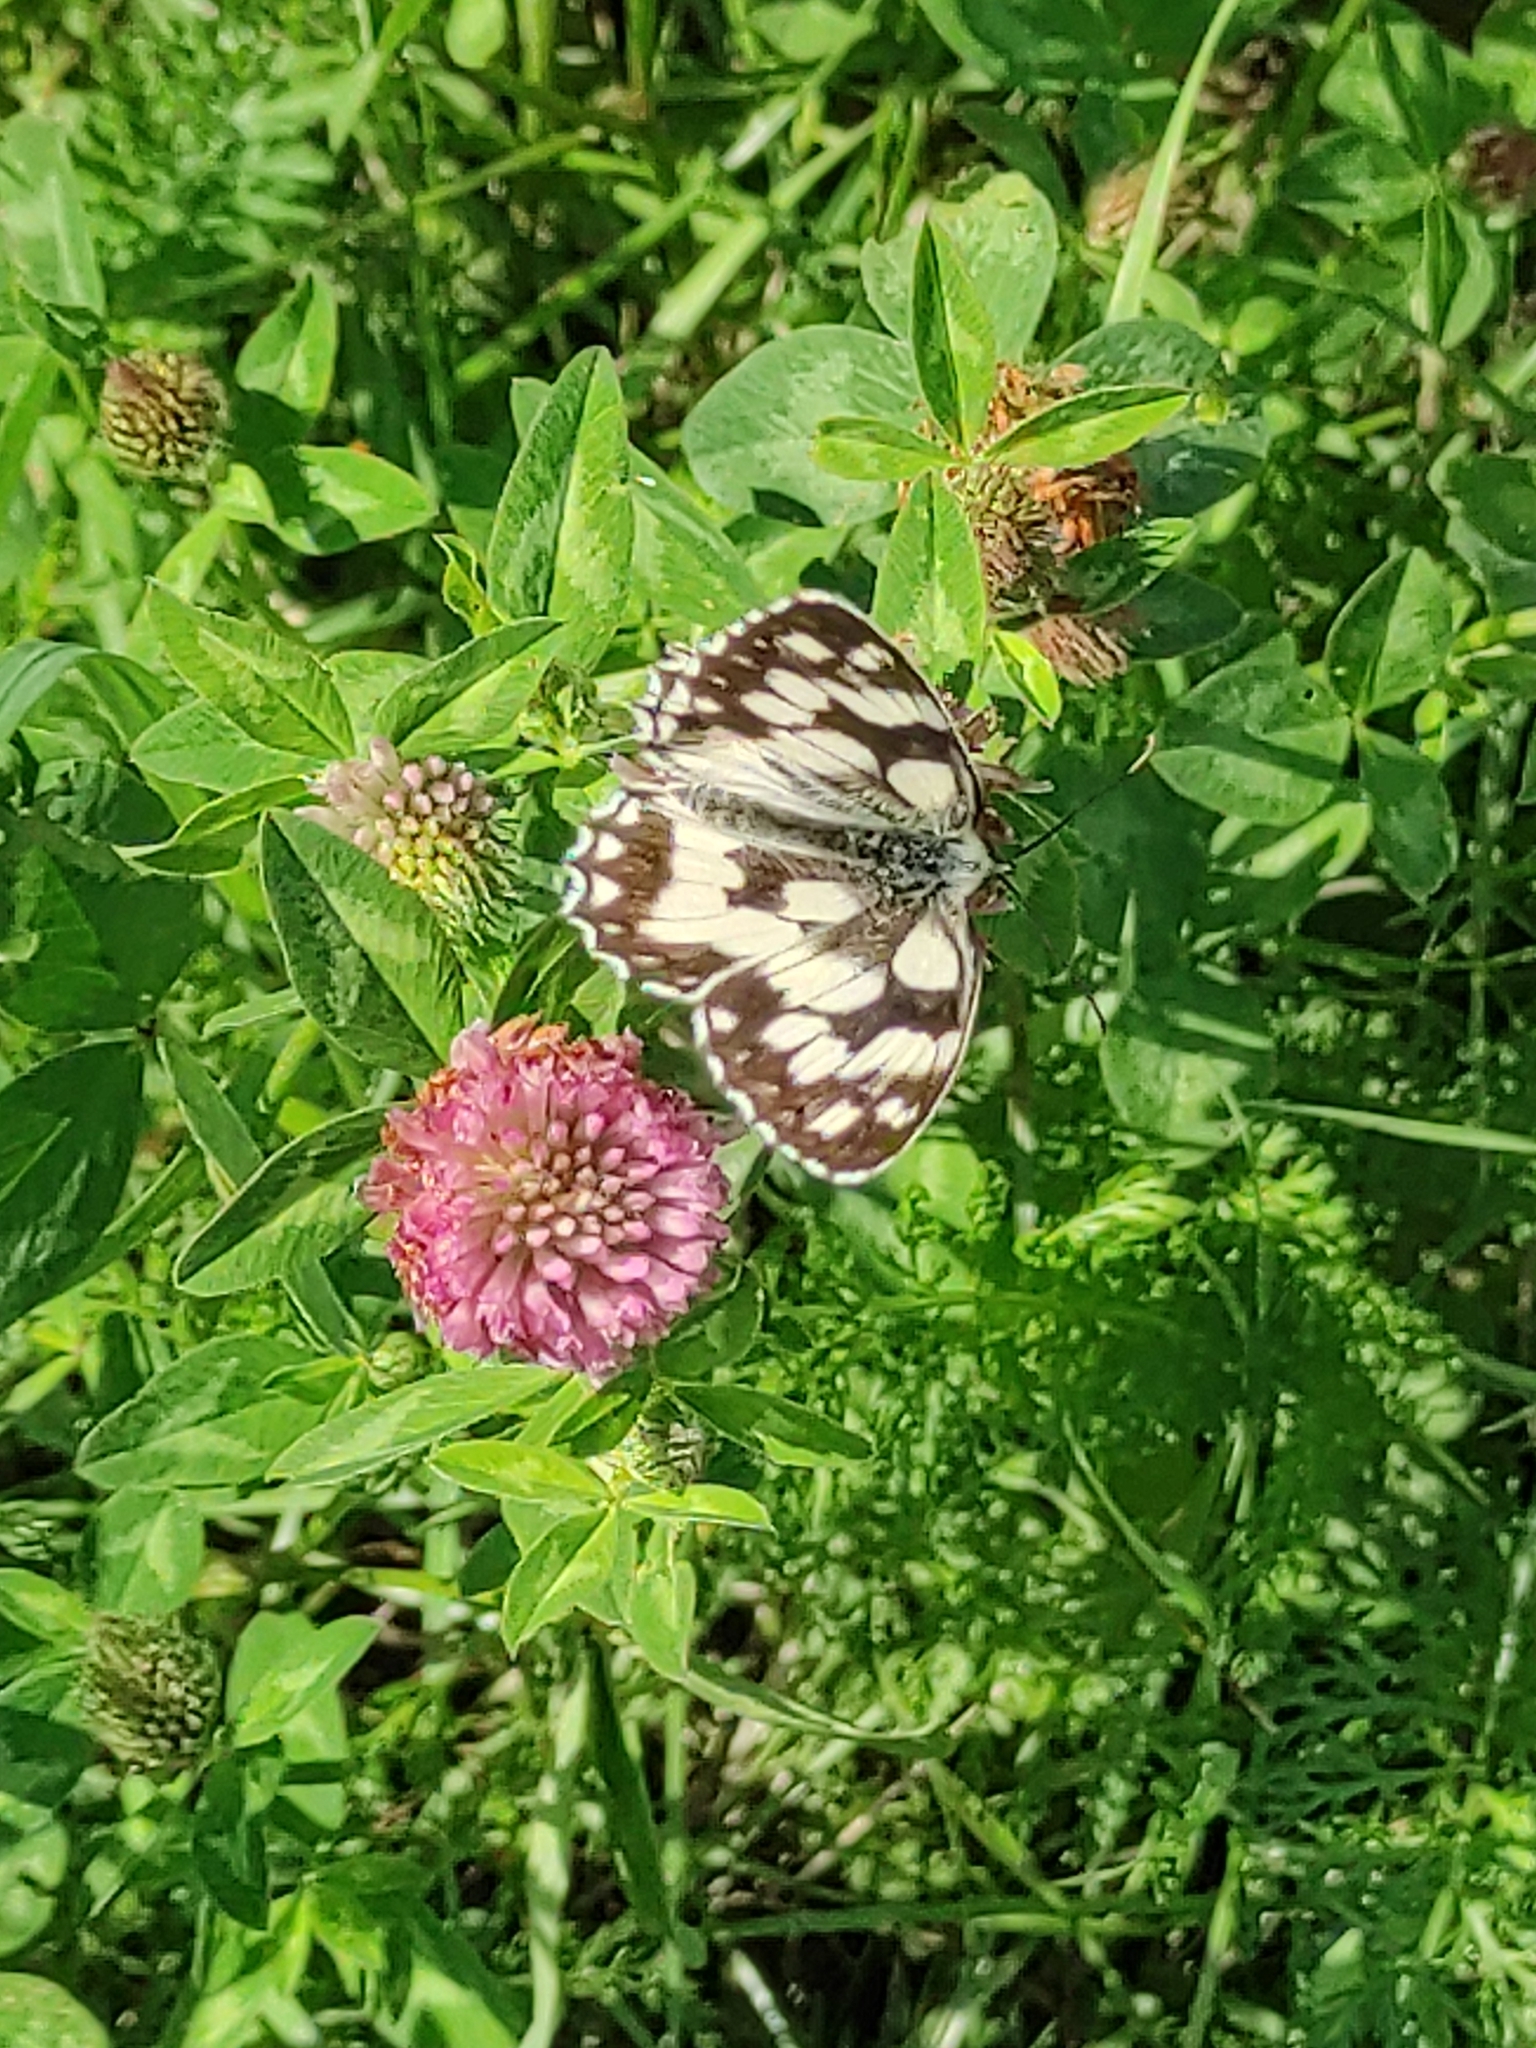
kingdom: Animalia
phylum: Arthropoda
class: Insecta
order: Lepidoptera
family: Nymphalidae
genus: Melanargia
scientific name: Melanargia galathea
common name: Marbled white
